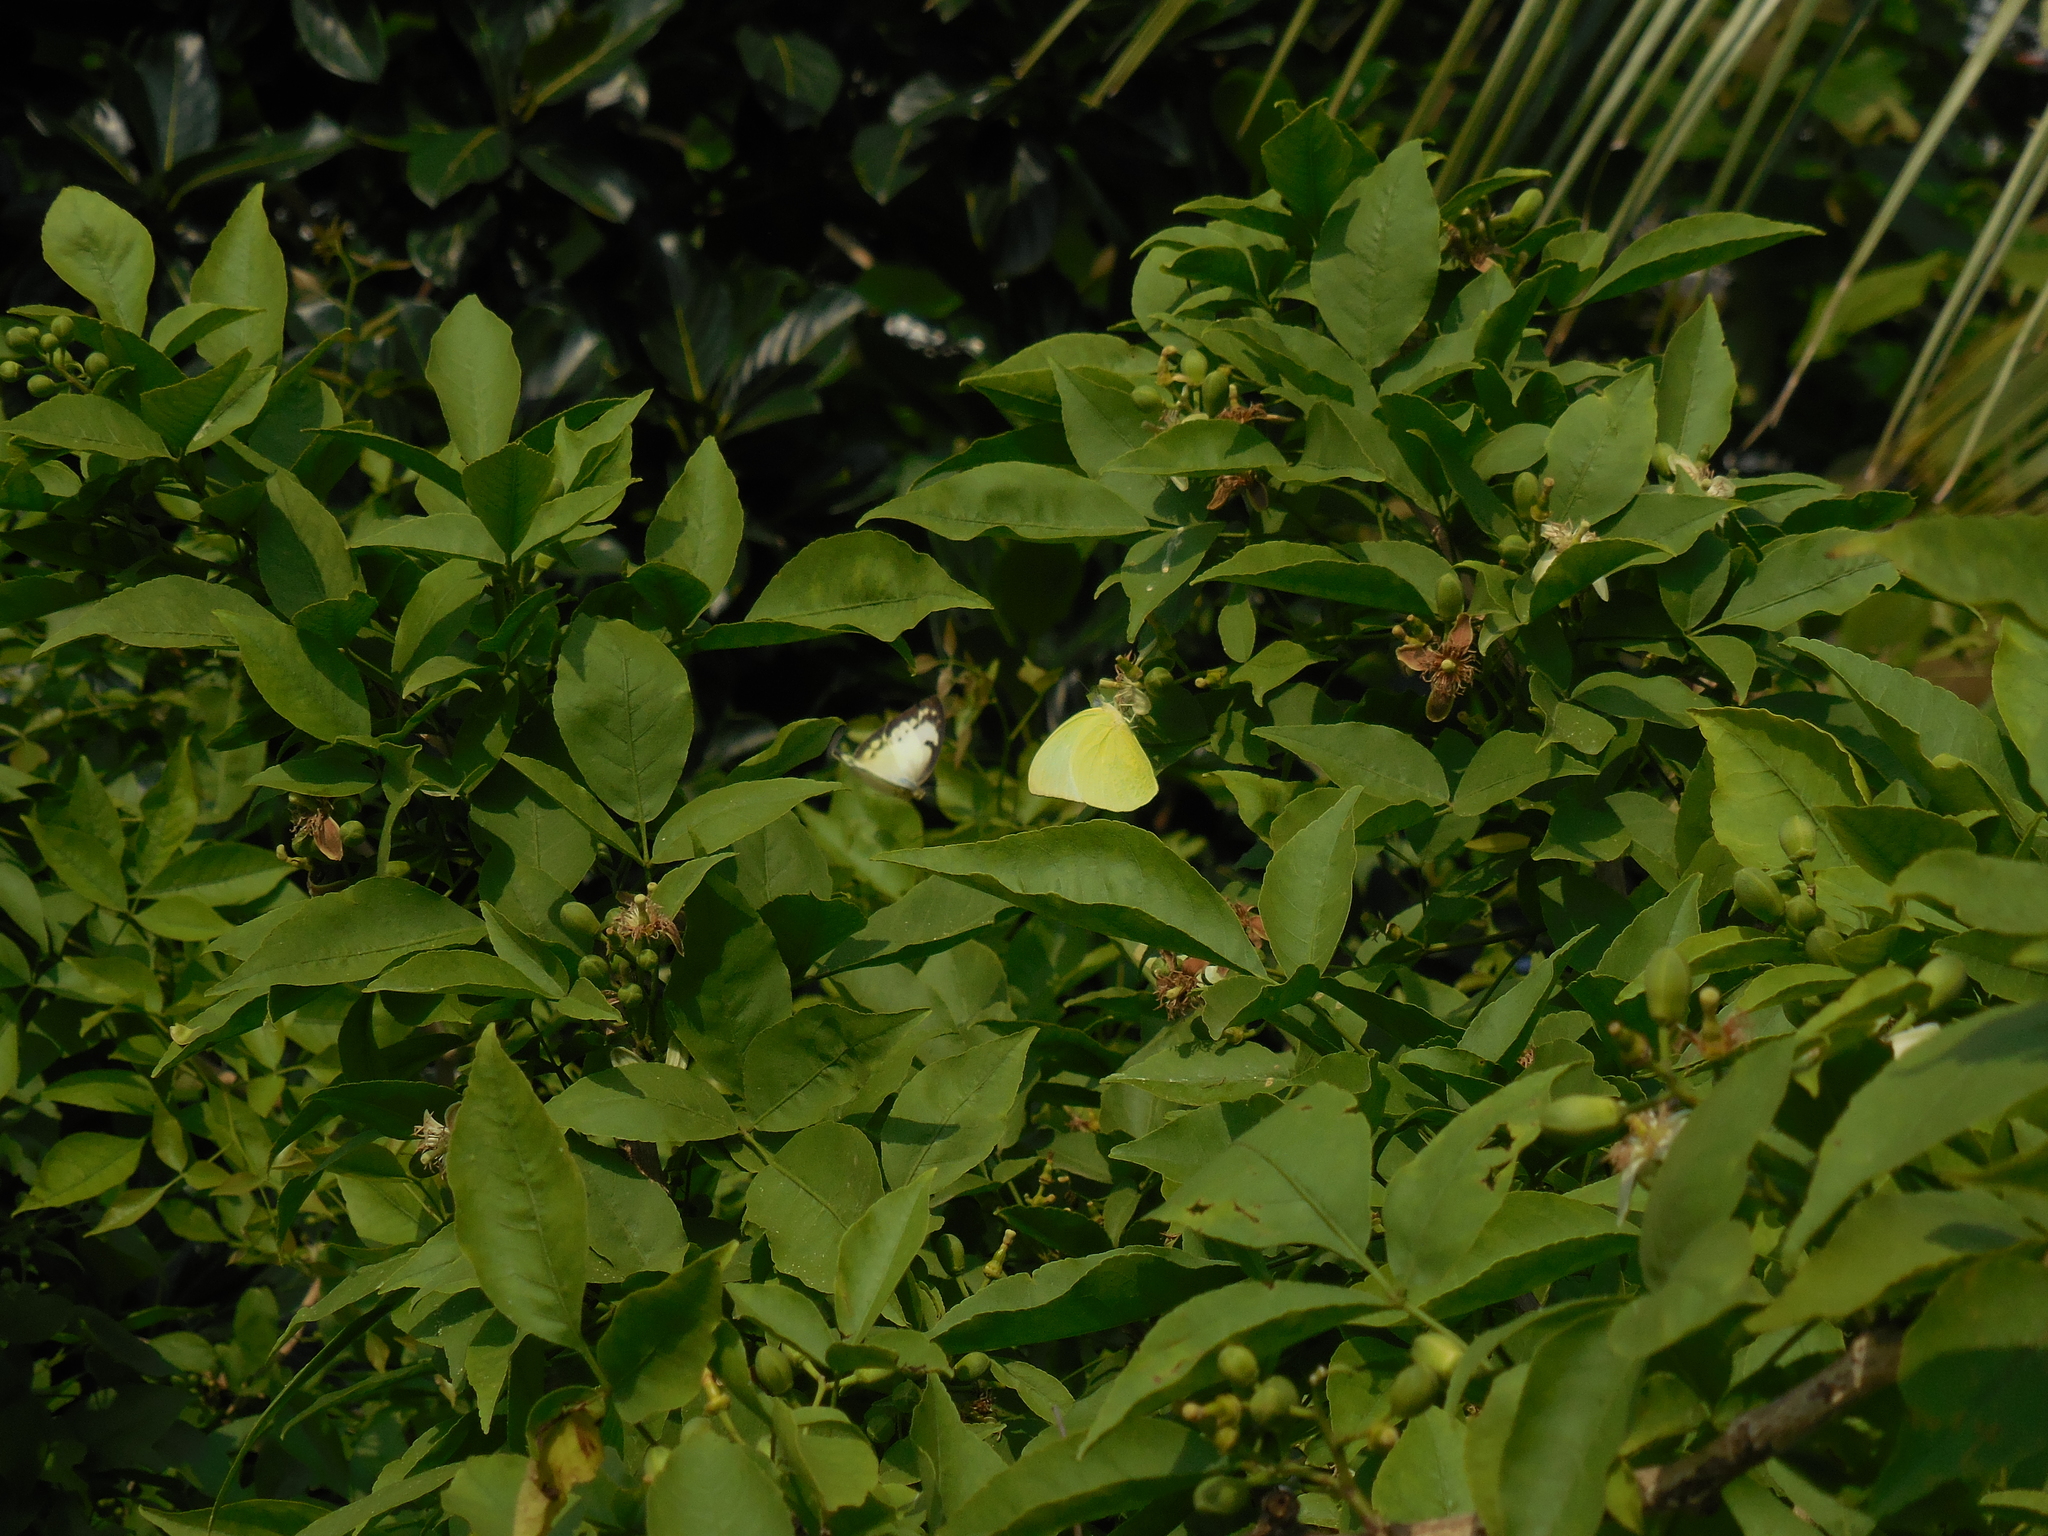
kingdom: Animalia
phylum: Arthropoda
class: Insecta
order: Lepidoptera
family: Pieridae
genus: Catopsilia
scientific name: Catopsilia pomona
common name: Common emigrant
